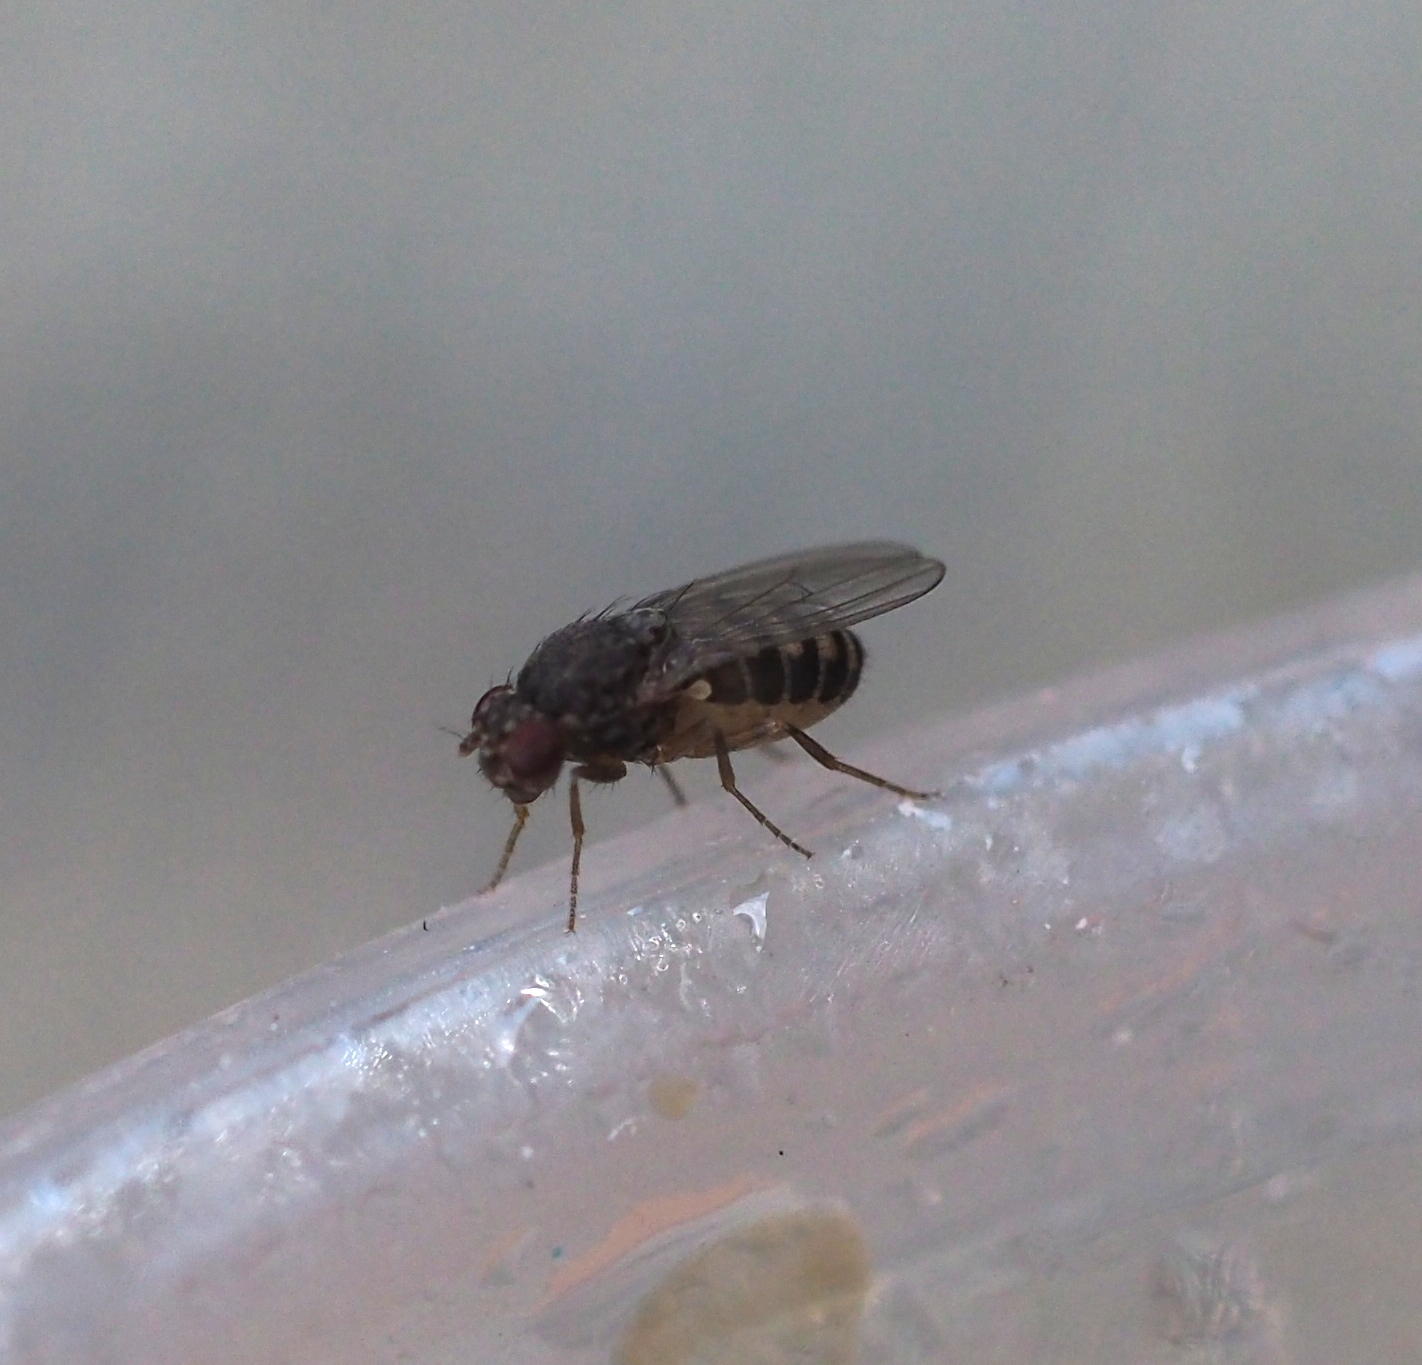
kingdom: Animalia
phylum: Arthropoda
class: Insecta
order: Diptera
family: Drosophilidae
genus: Drosophila
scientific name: Drosophila hydei
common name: Pomace fly
